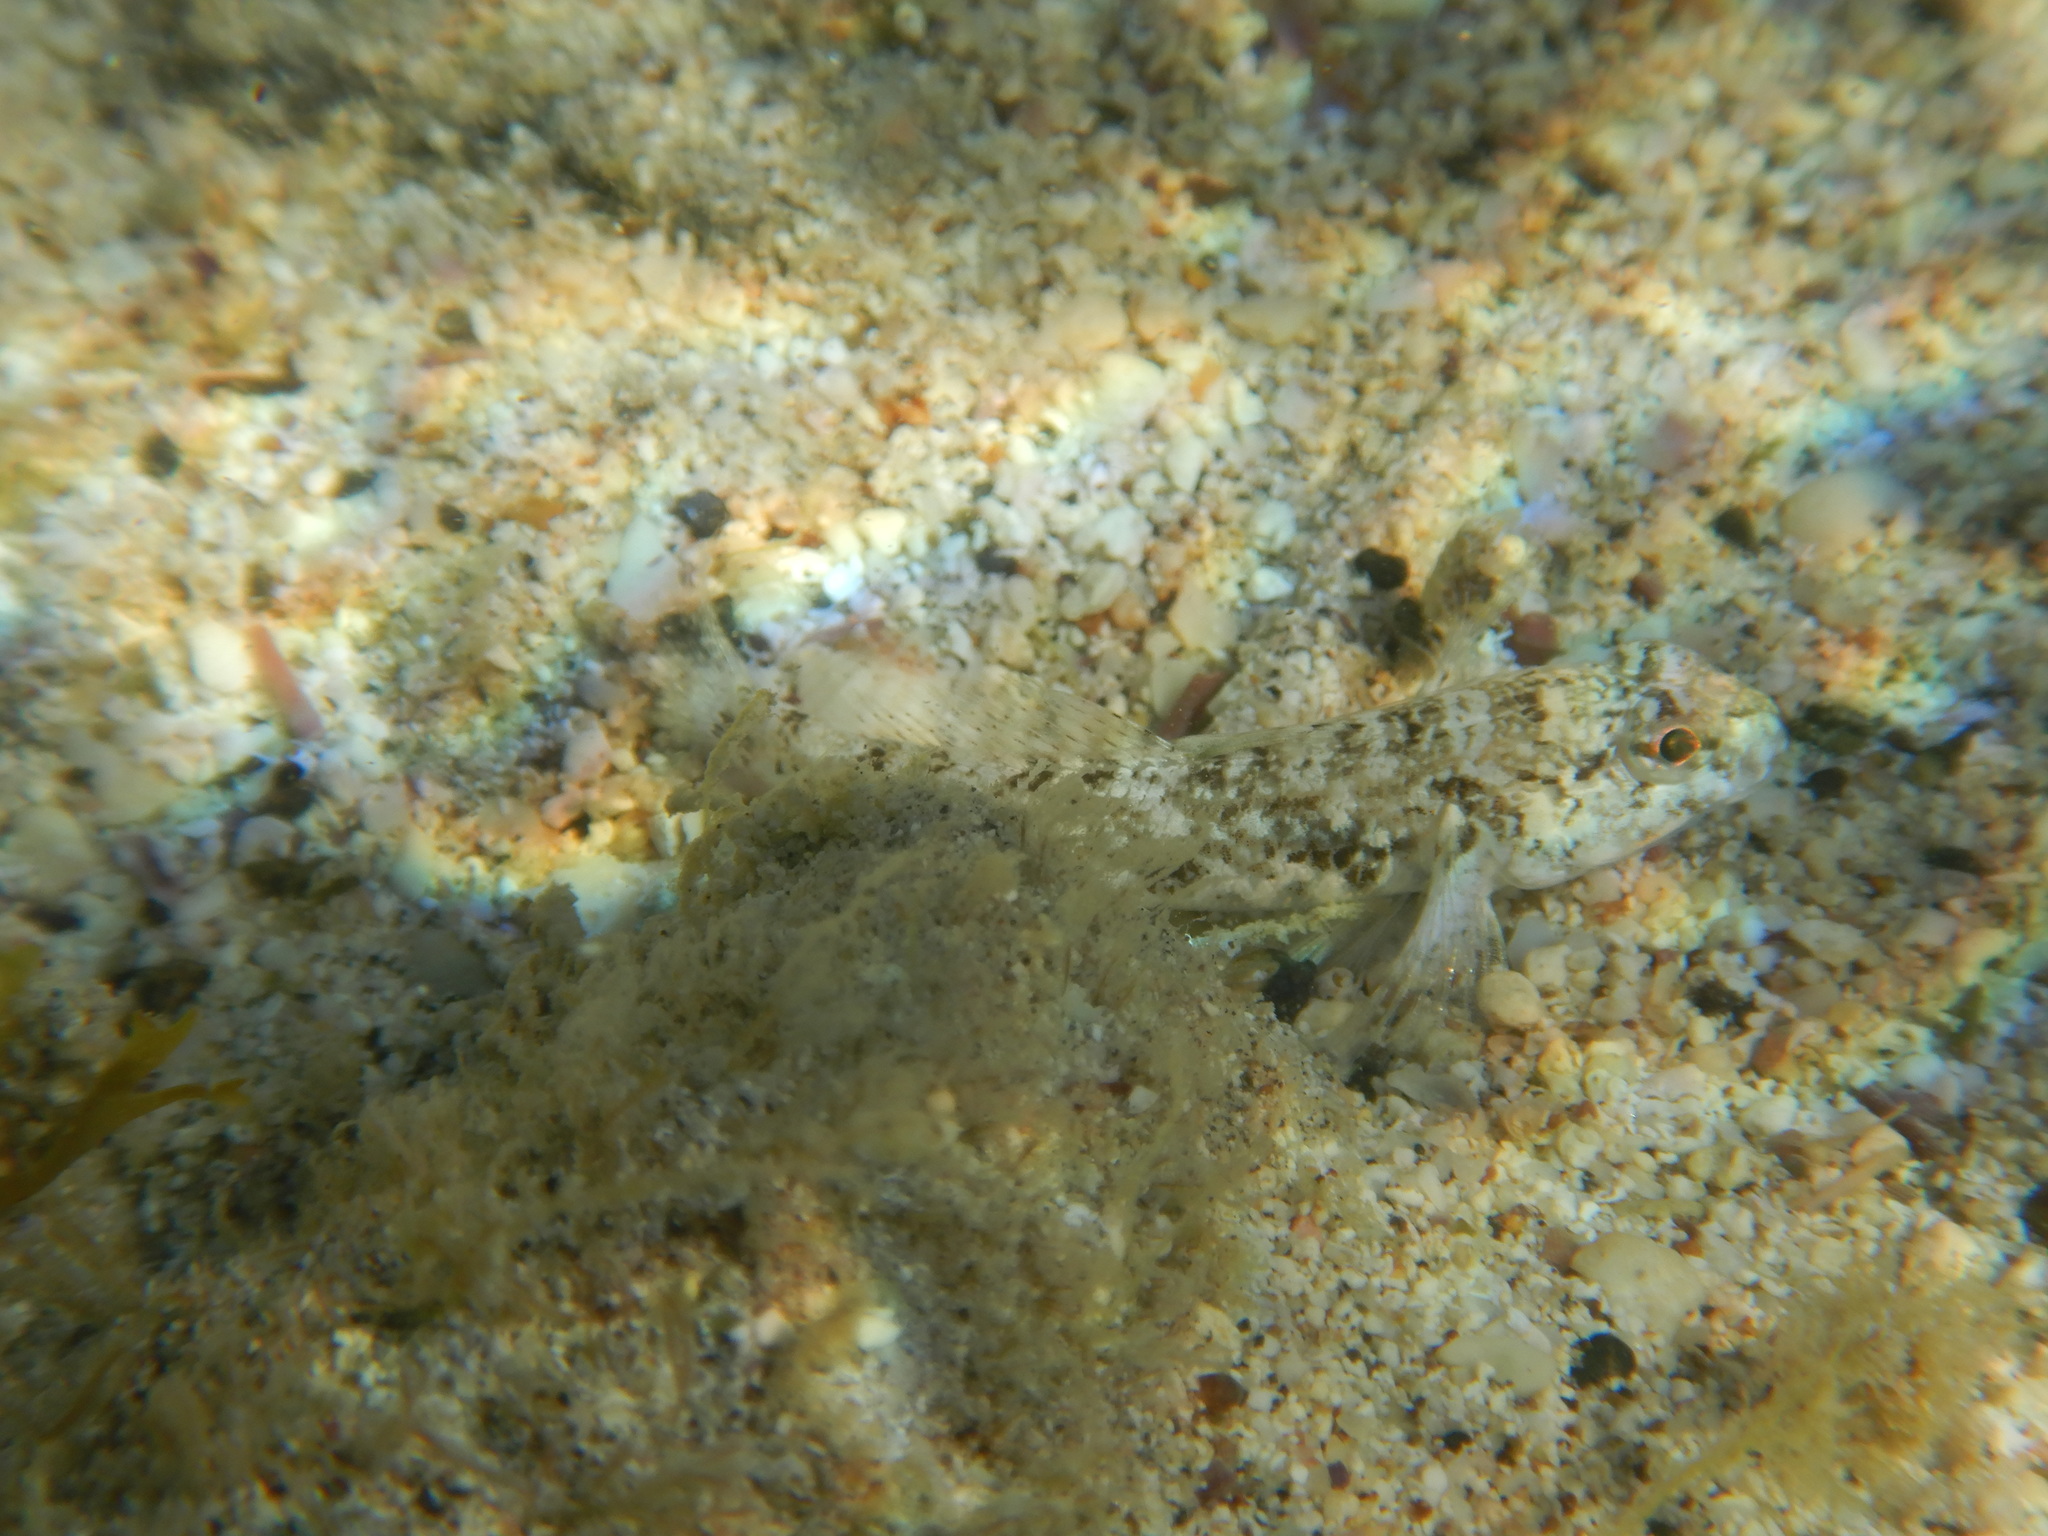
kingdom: Animalia
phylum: Chordata
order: Perciformes
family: Gobiidae
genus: Gobius
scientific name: Gobius niger
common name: Black goby
